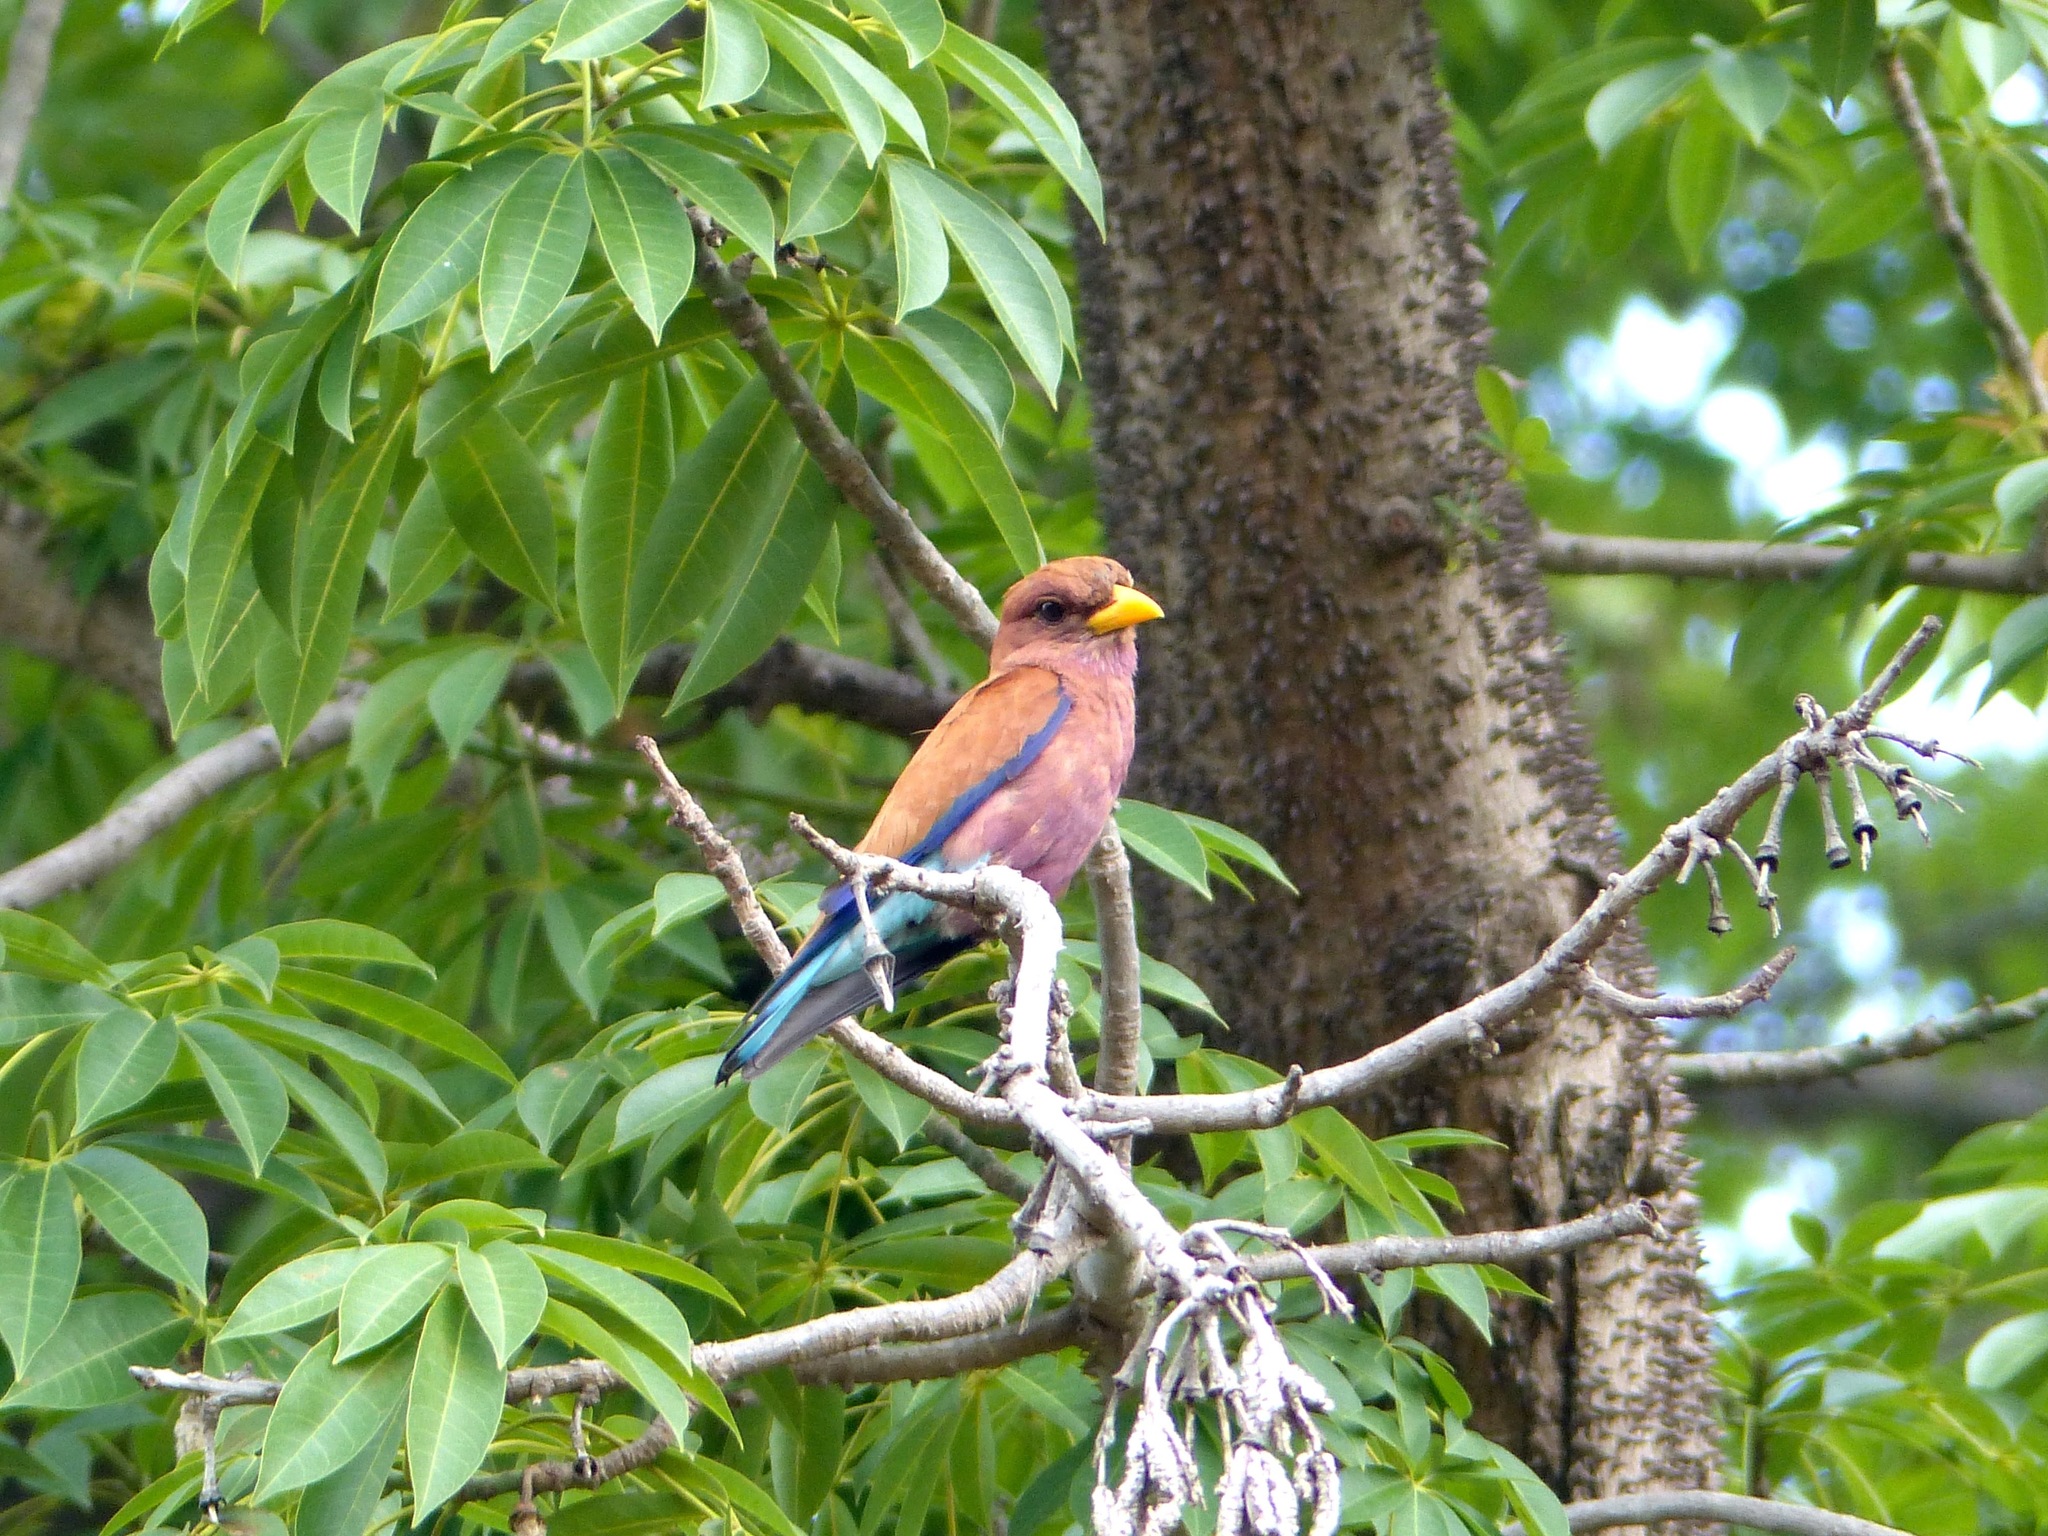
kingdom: Animalia
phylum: Chordata
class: Aves
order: Coraciiformes
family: Coraciidae
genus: Eurystomus
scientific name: Eurystomus glaucurus
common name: Broad-billed roller
